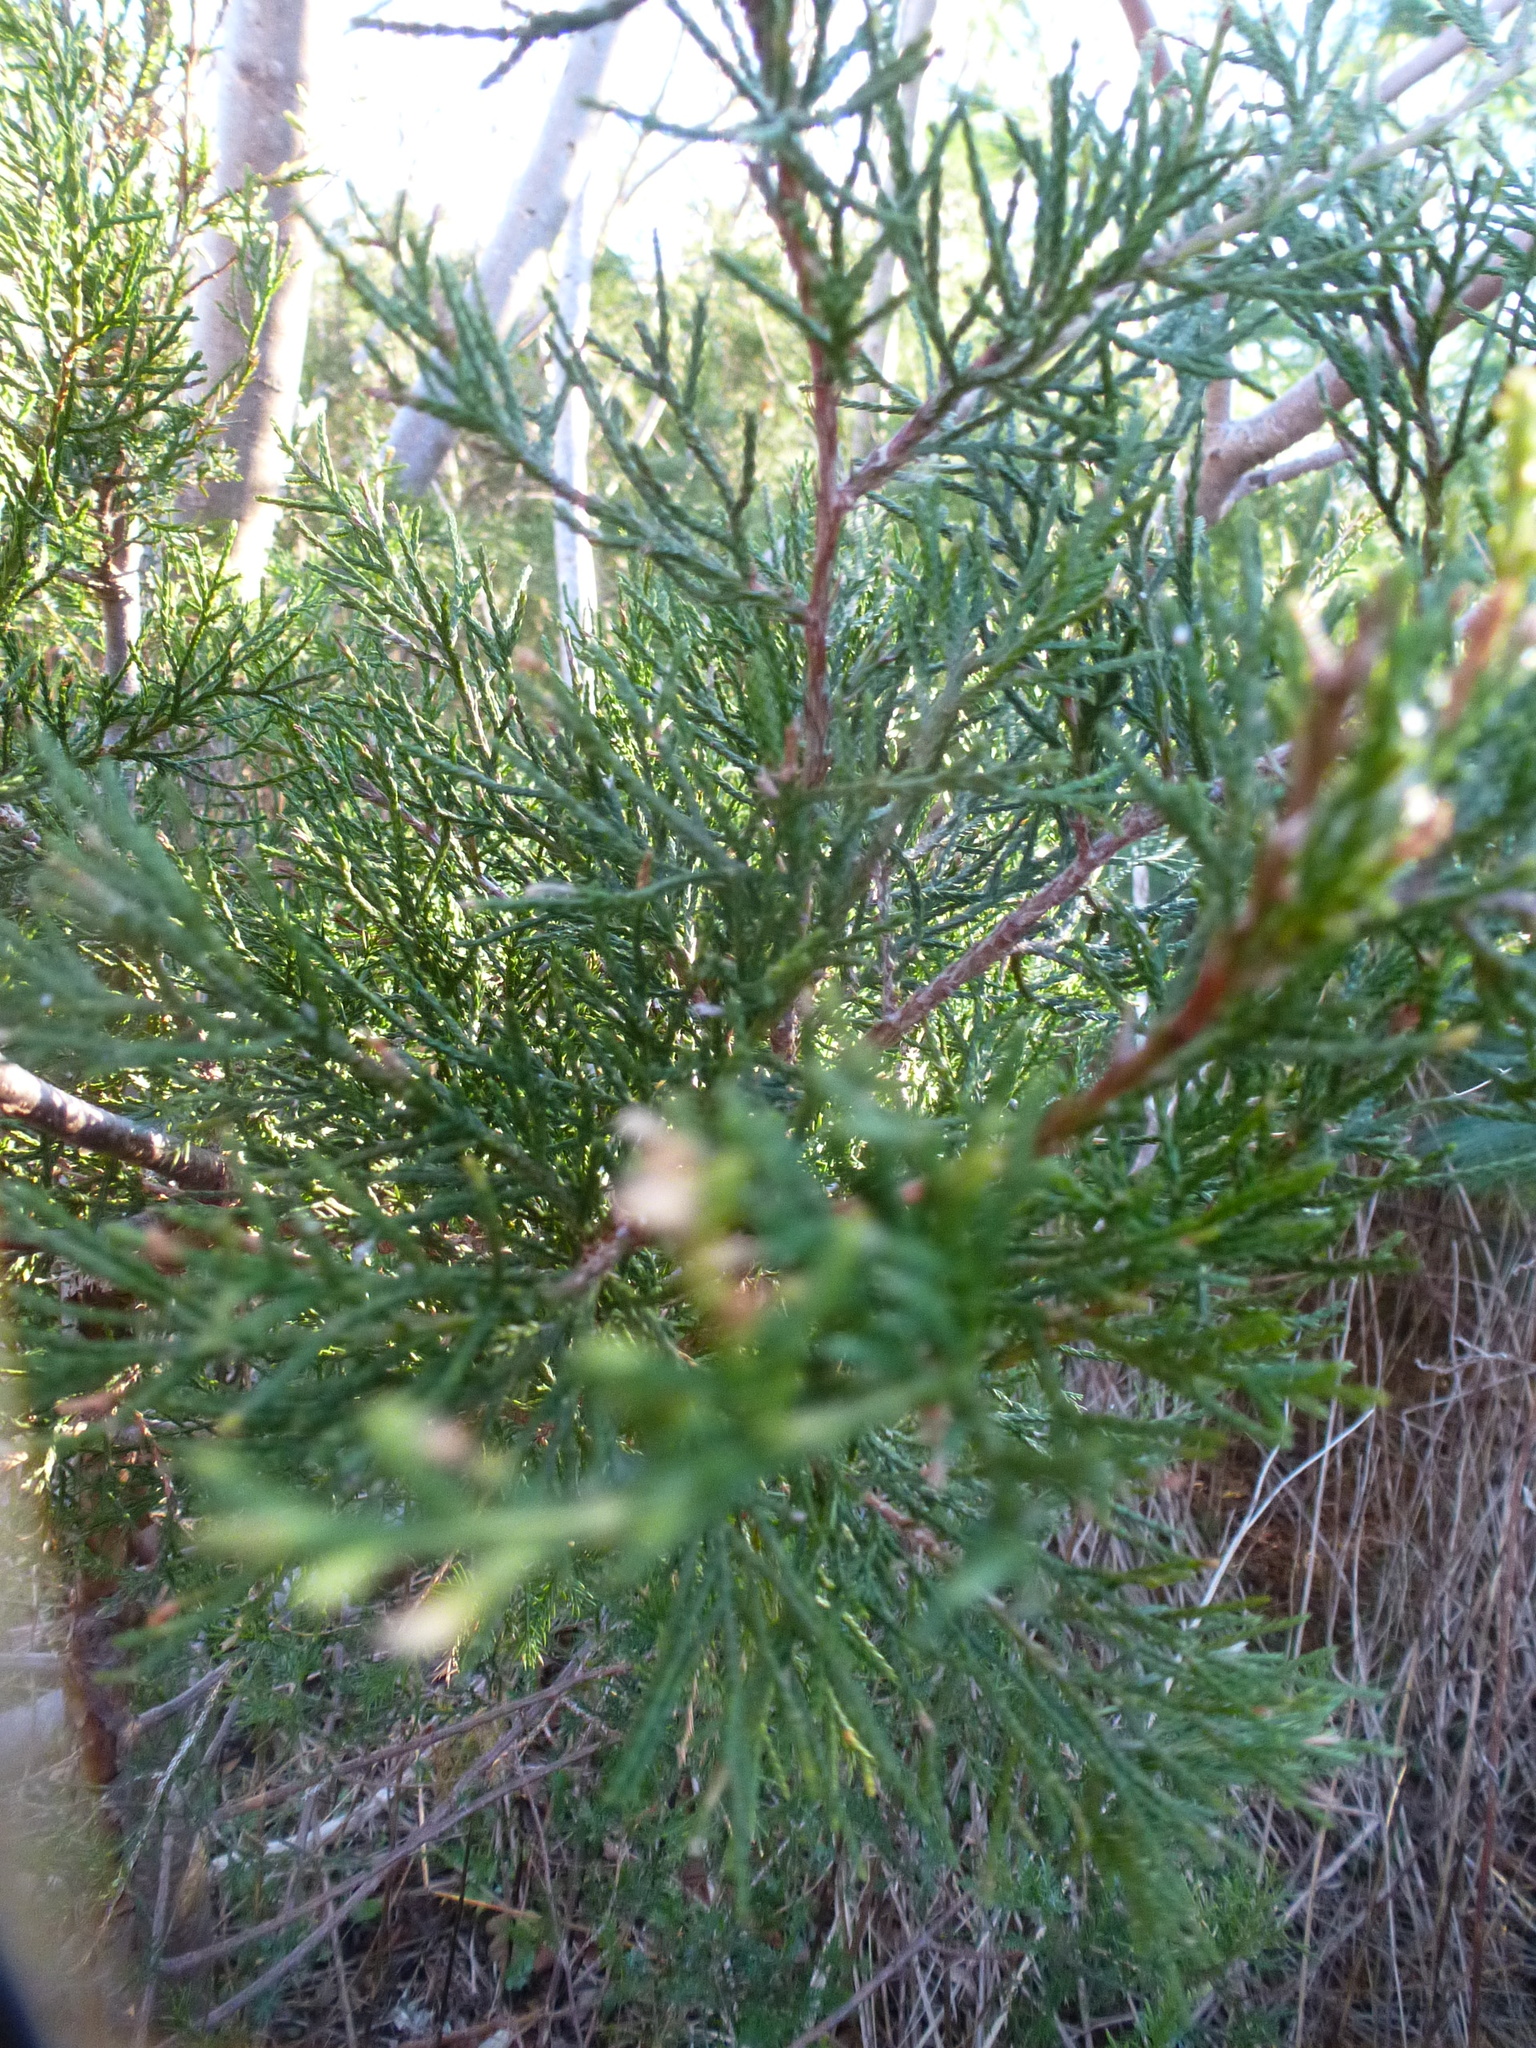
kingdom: Plantae
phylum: Tracheophyta
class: Pinopsida
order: Pinales
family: Cupressaceae
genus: Juniperus
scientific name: Juniperus virginiana
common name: Red juniper
